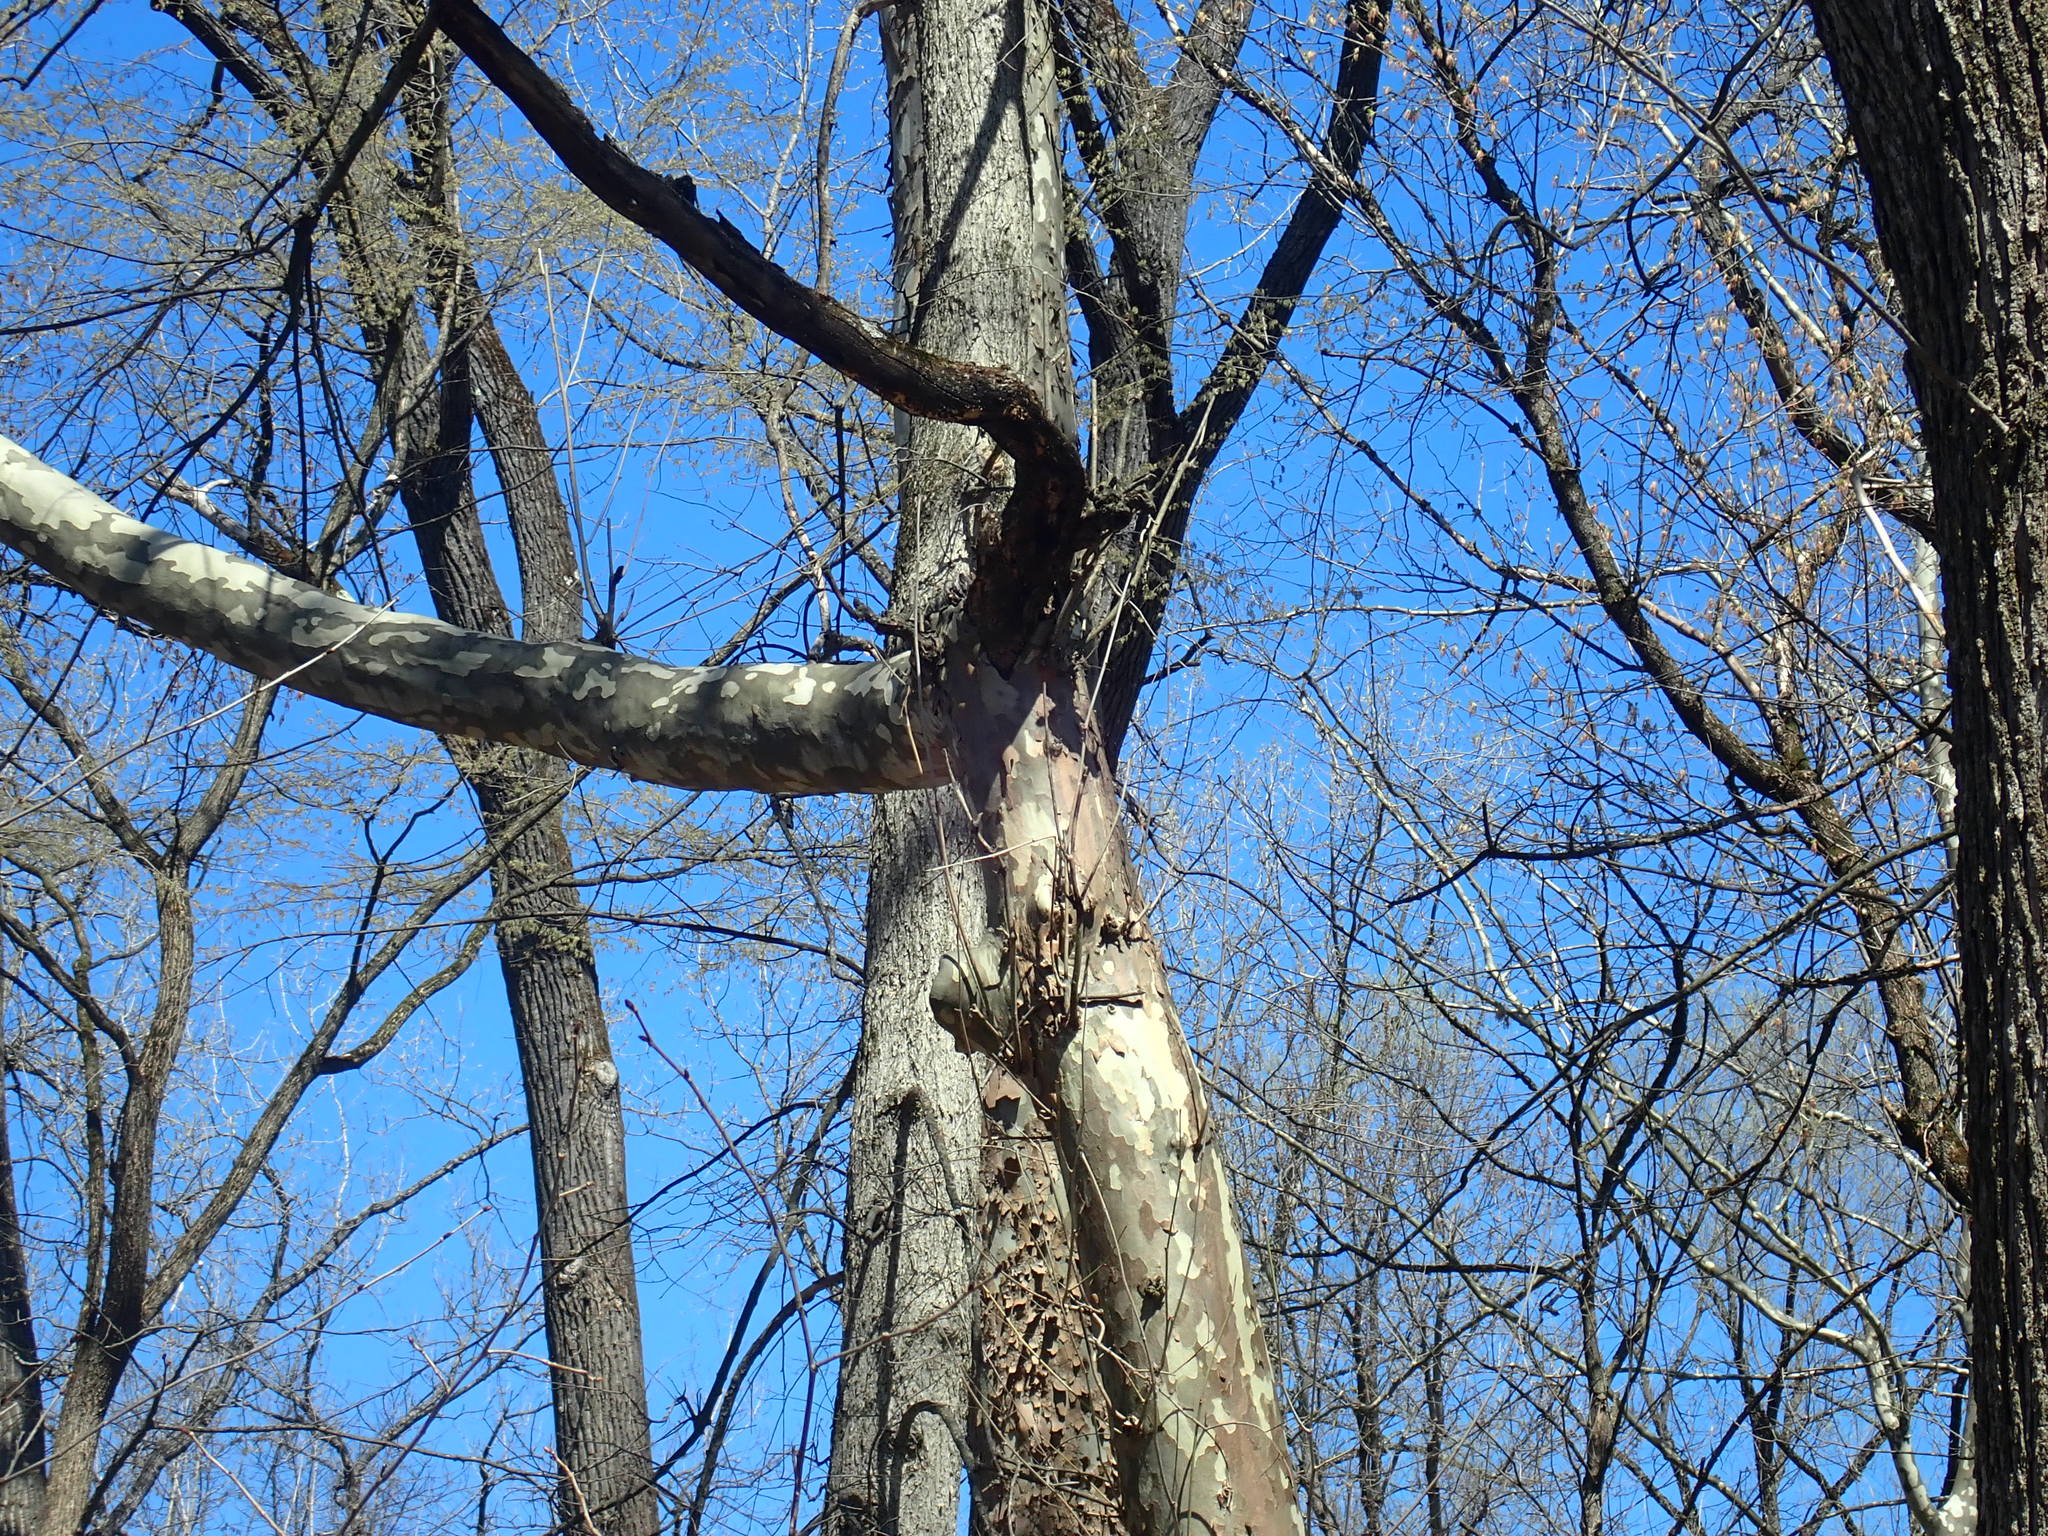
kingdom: Plantae
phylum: Tracheophyta
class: Magnoliopsida
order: Proteales
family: Platanaceae
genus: Platanus
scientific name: Platanus occidentalis
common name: American sycamore
